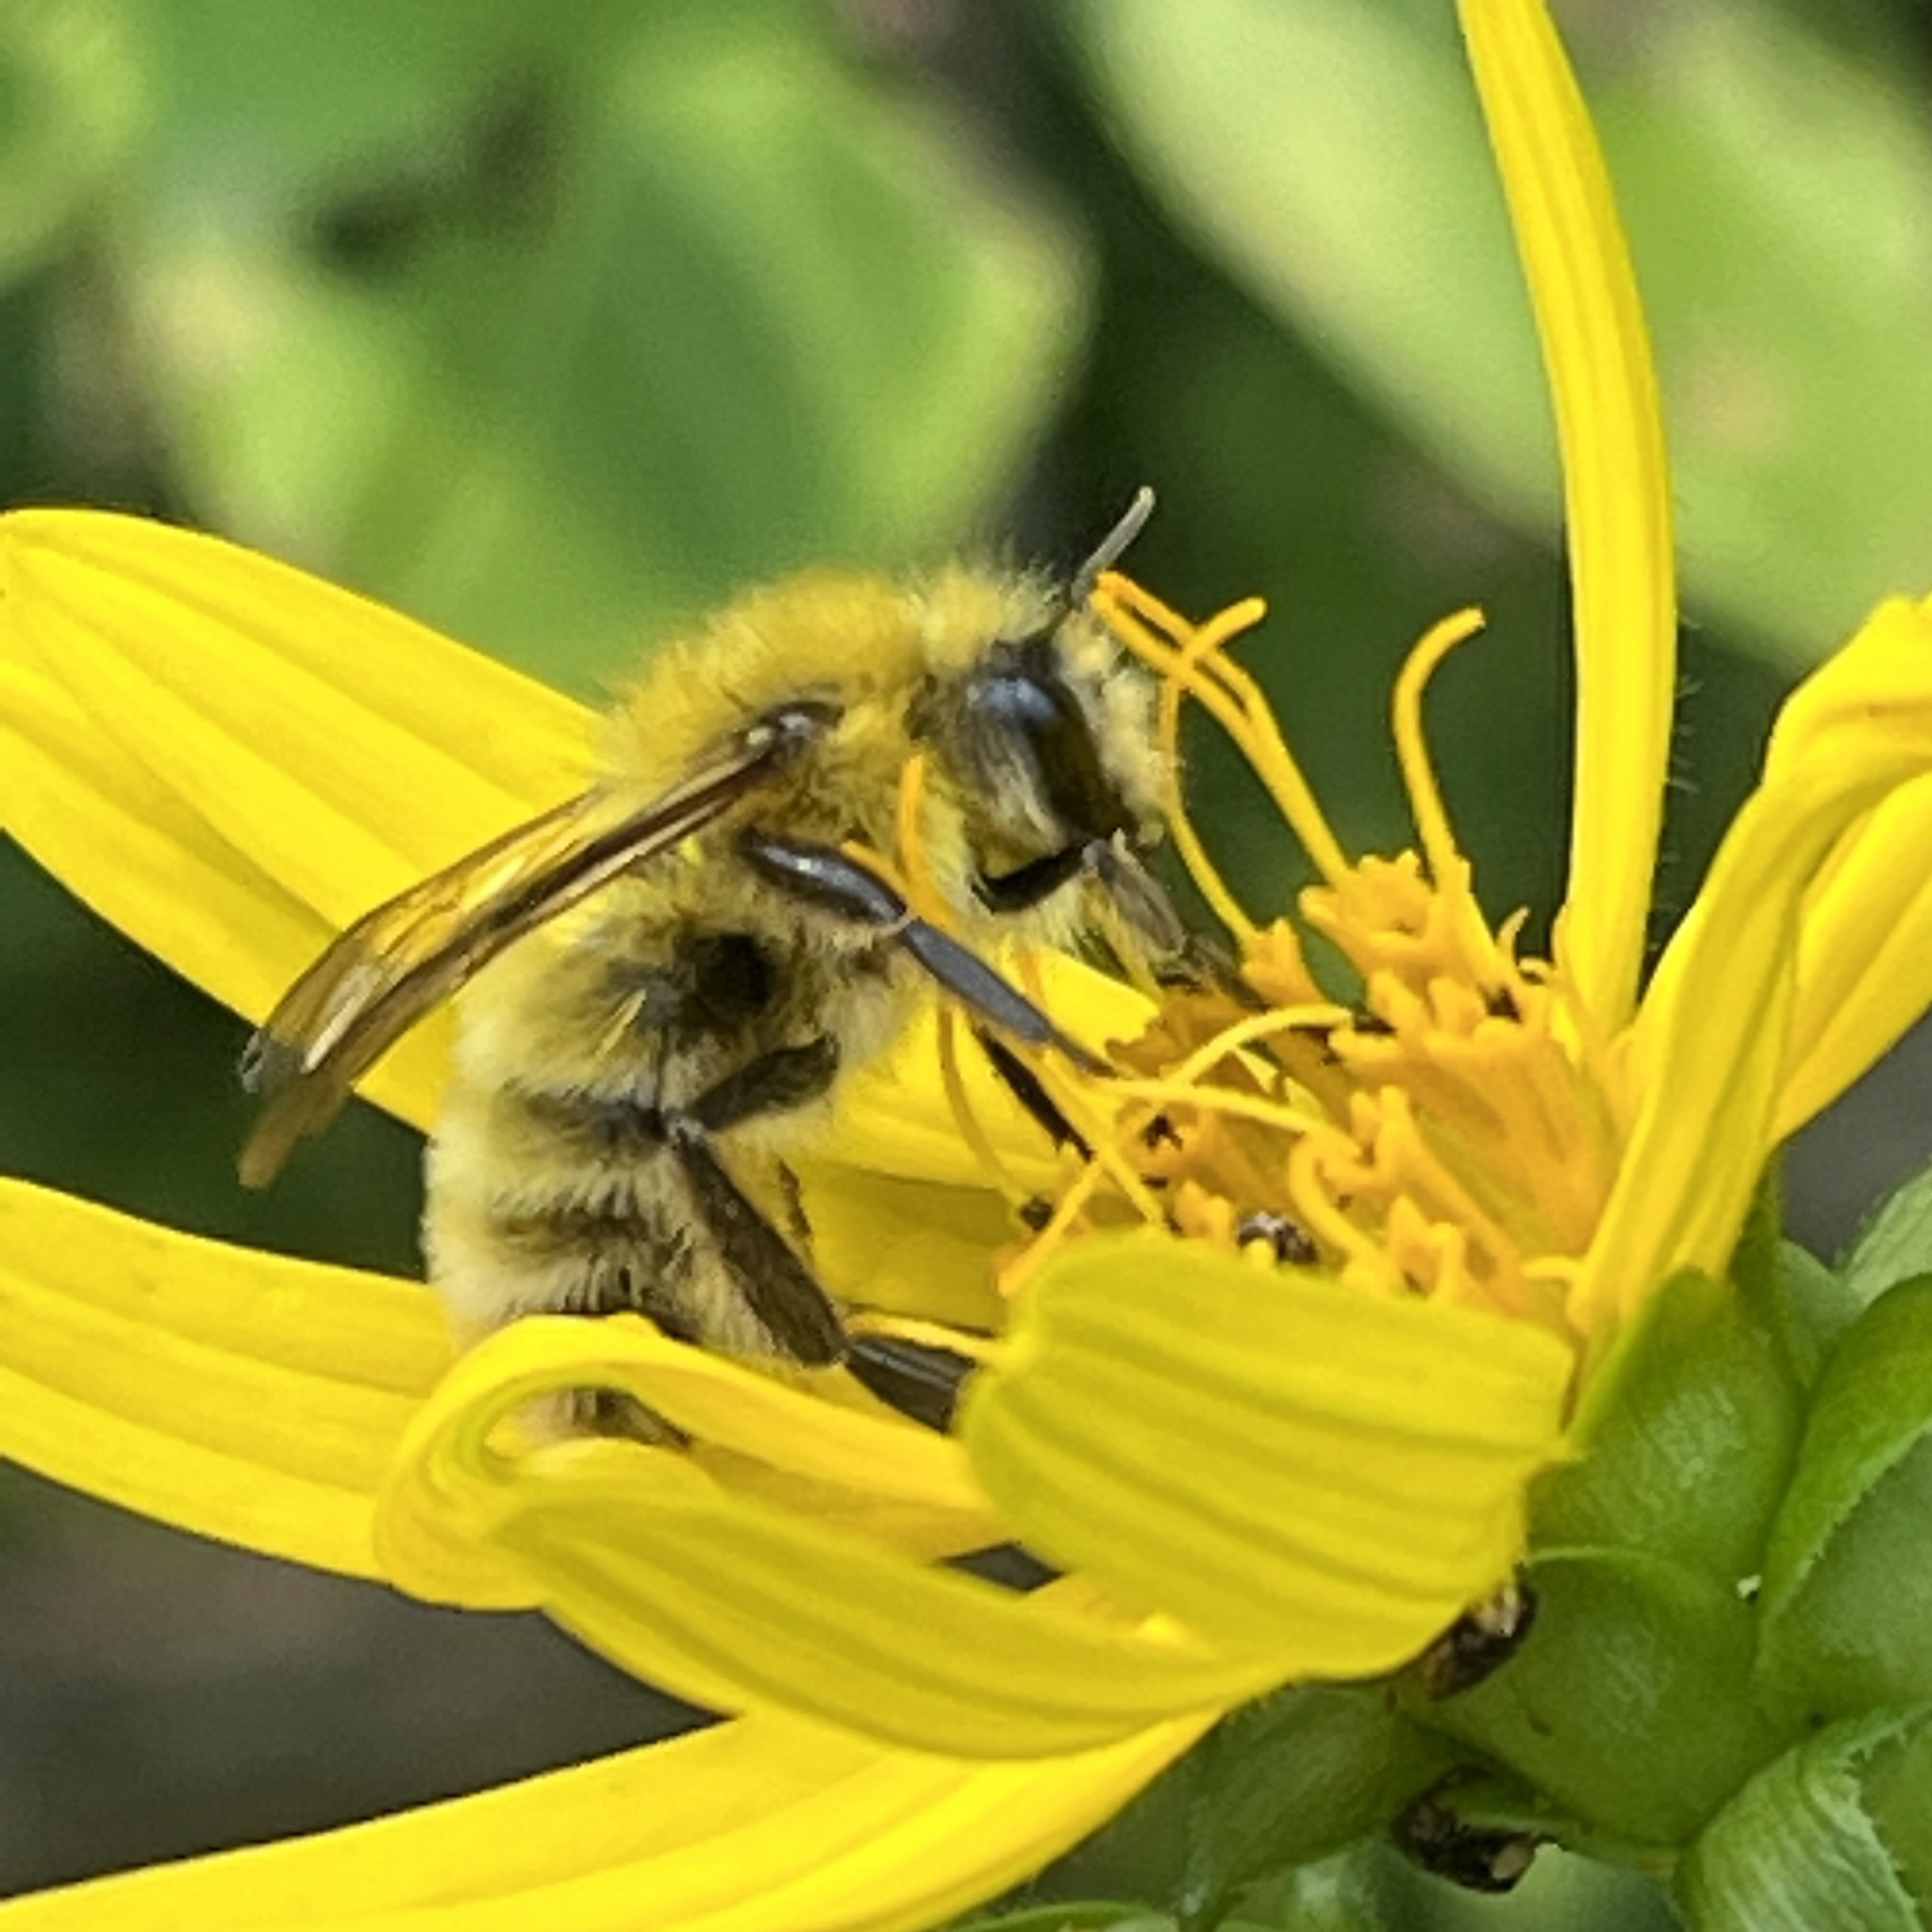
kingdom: Animalia
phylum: Arthropoda
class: Insecta
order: Hymenoptera
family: Apidae
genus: Bombus
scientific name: Bombus perplexus
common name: Confusing bumble bee
